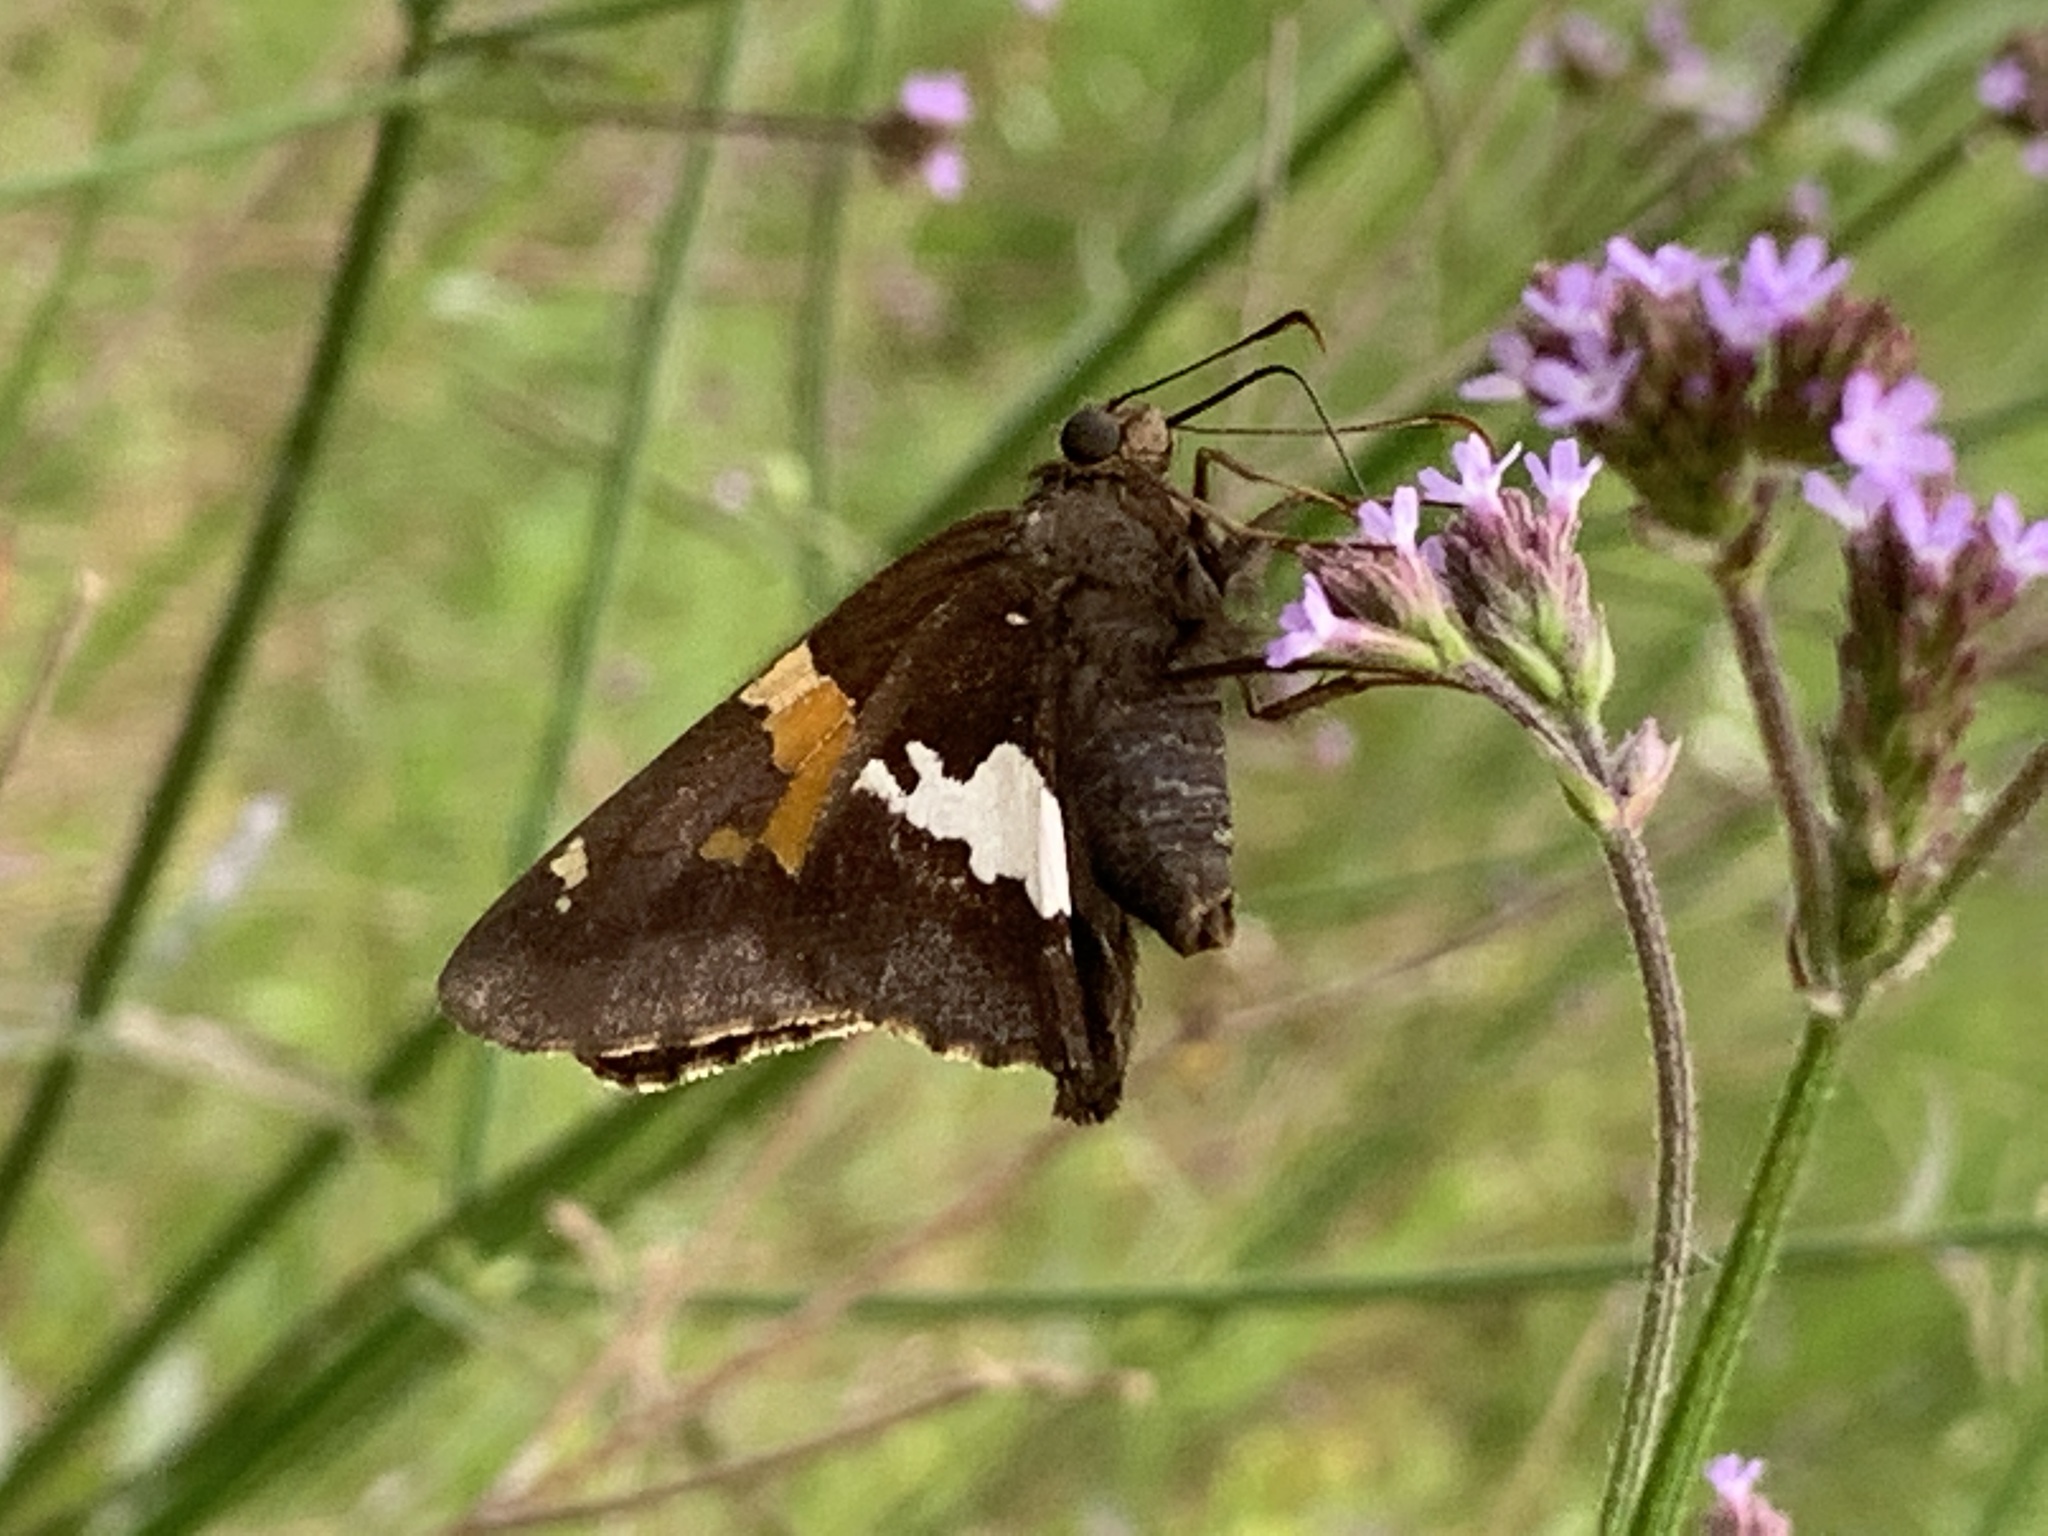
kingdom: Animalia
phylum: Arthropoda
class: Insecta
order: Lepidoptera
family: Hesperiidae
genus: Epargyreus
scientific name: Epargyreus clarus
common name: Silver-spotted skipper
